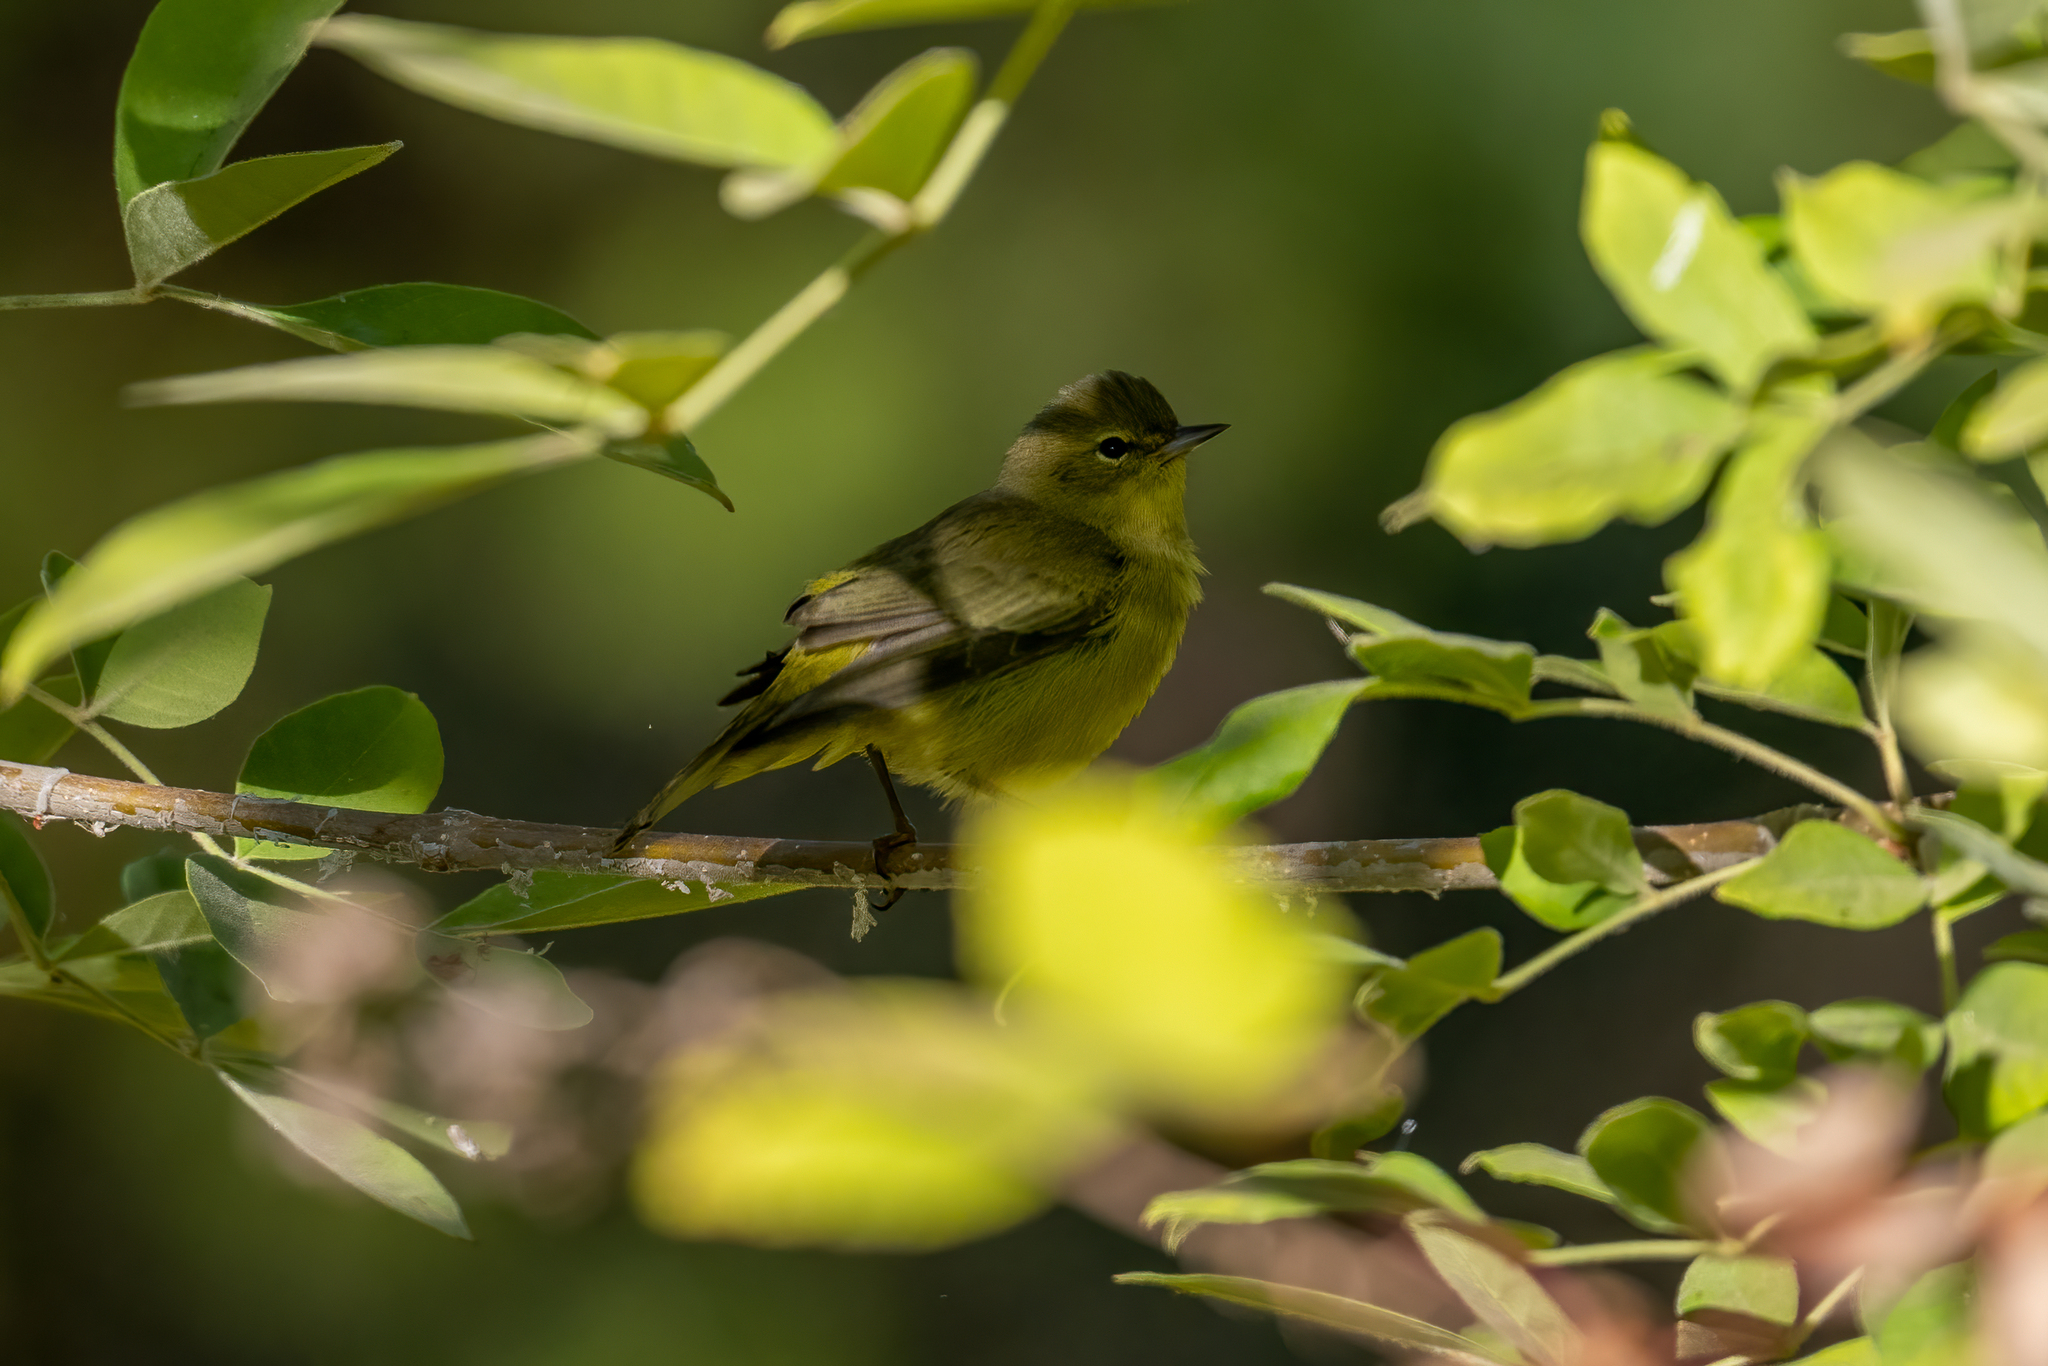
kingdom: Animalia
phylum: Chordata
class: Aves
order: Passeriformes
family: Parulidae
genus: Geothlypis
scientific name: Geothlypis tolmiei
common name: Macgillivray's warbler
